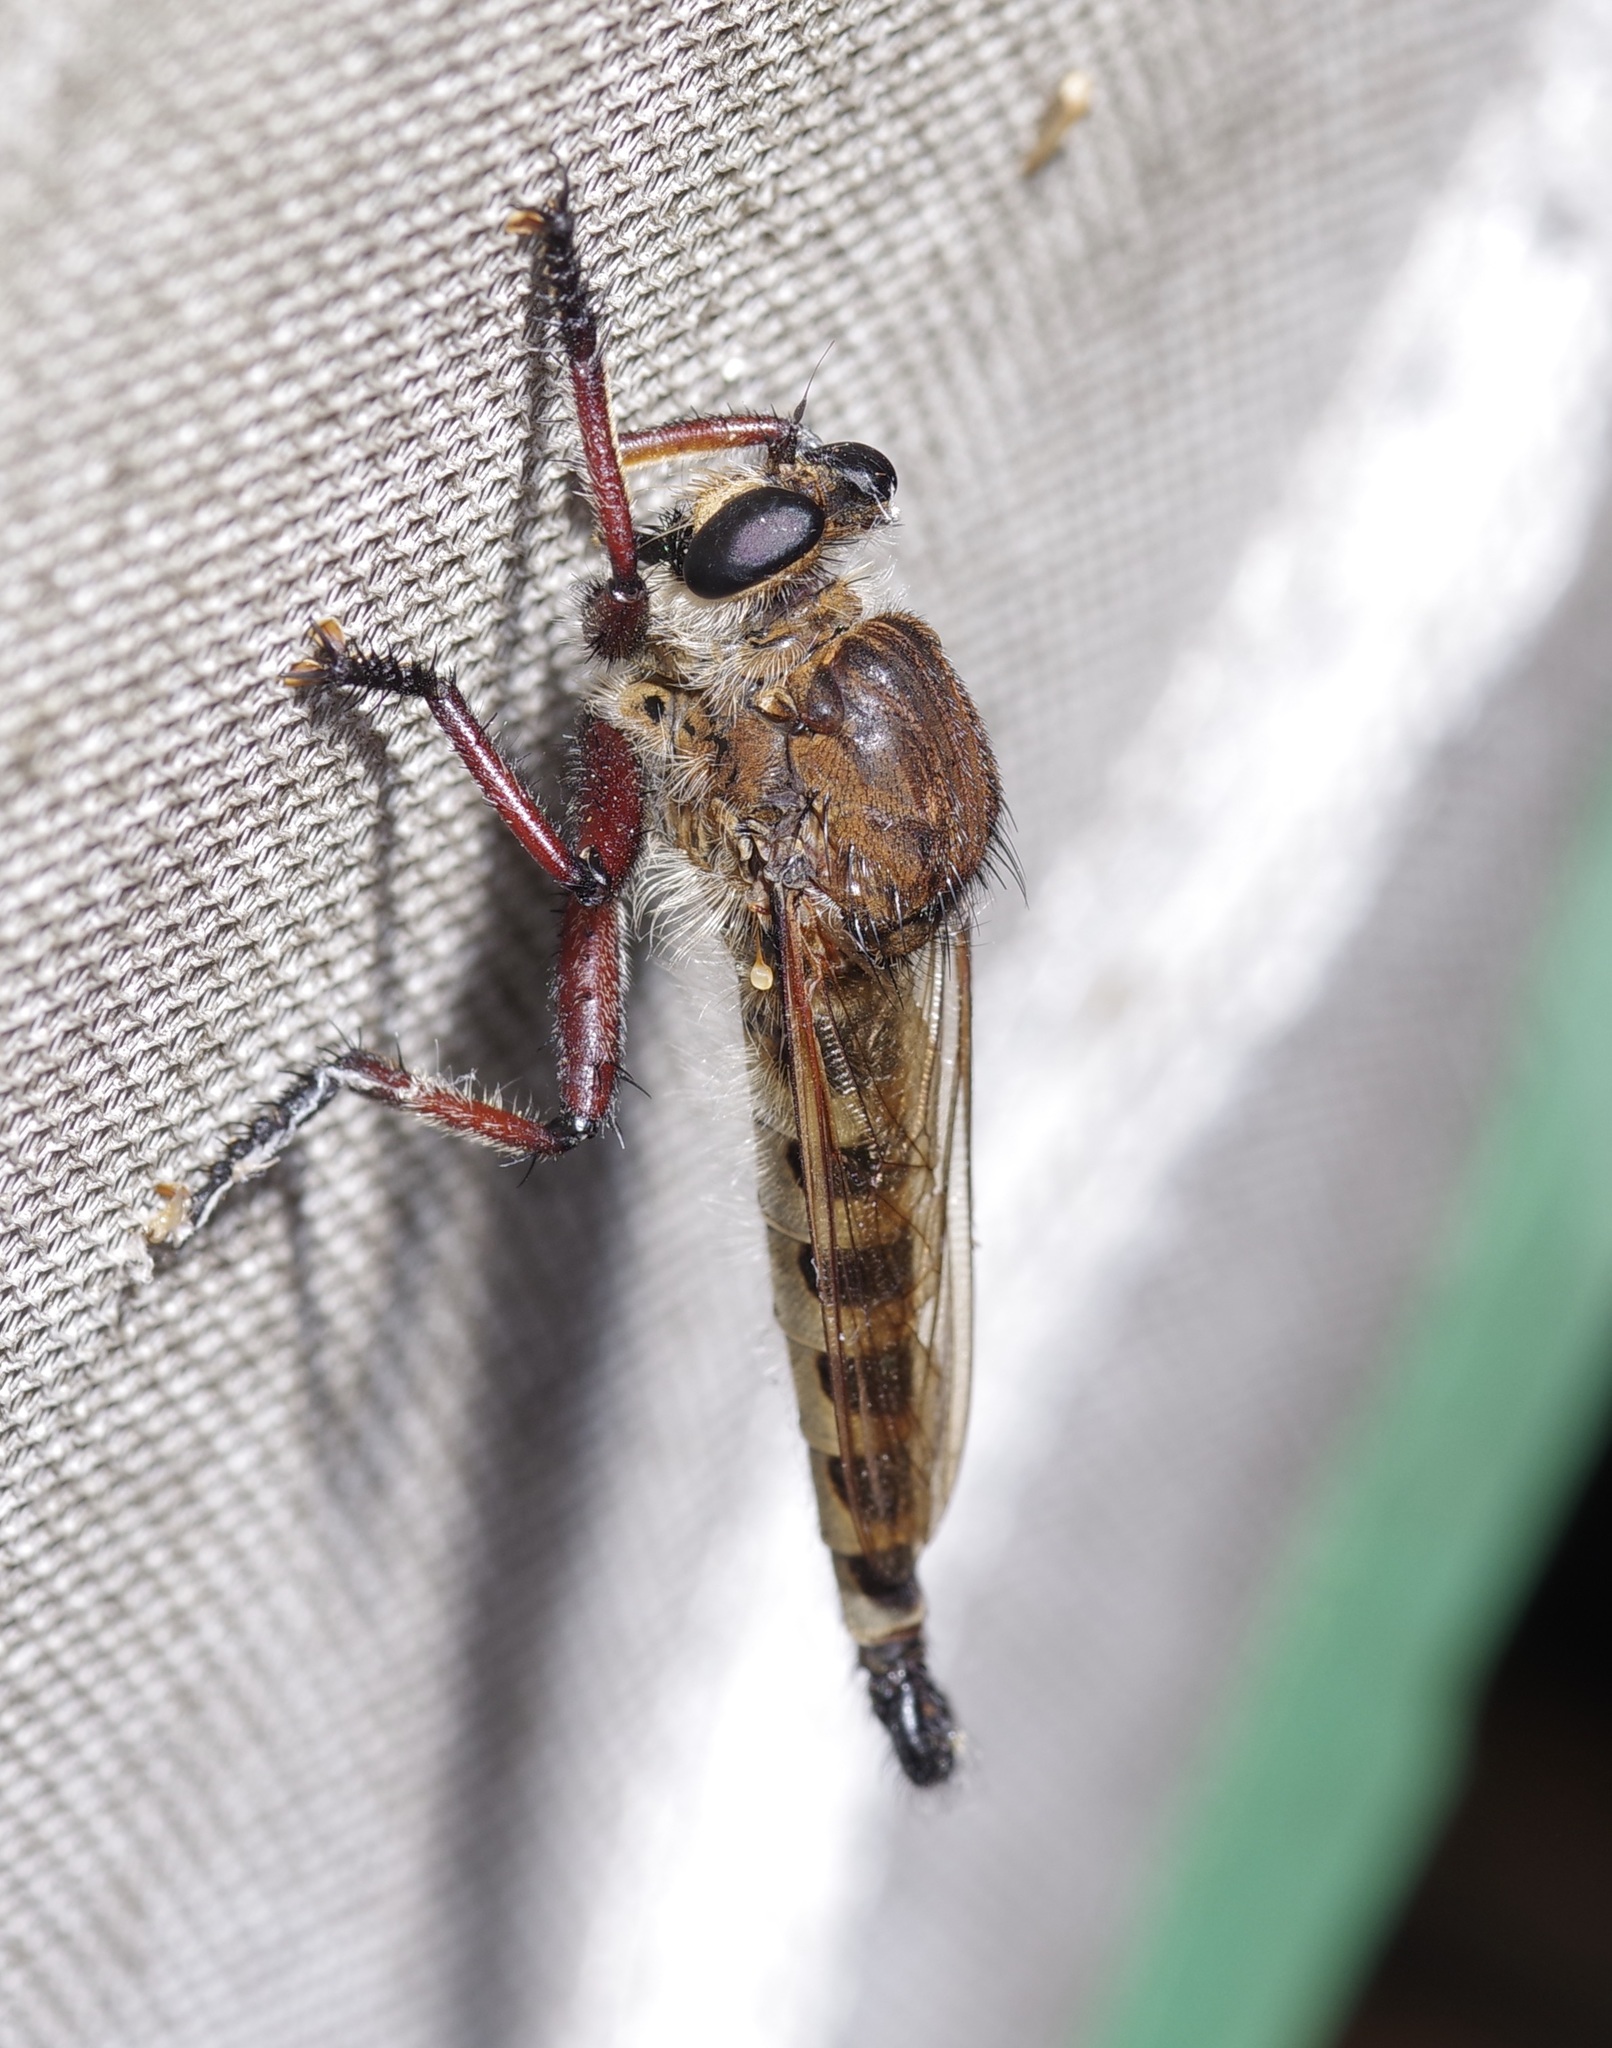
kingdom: Animalia
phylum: Arthropoda
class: Insecta
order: Diptera
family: Asilidae
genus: Promachus
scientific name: Promachus hinei
